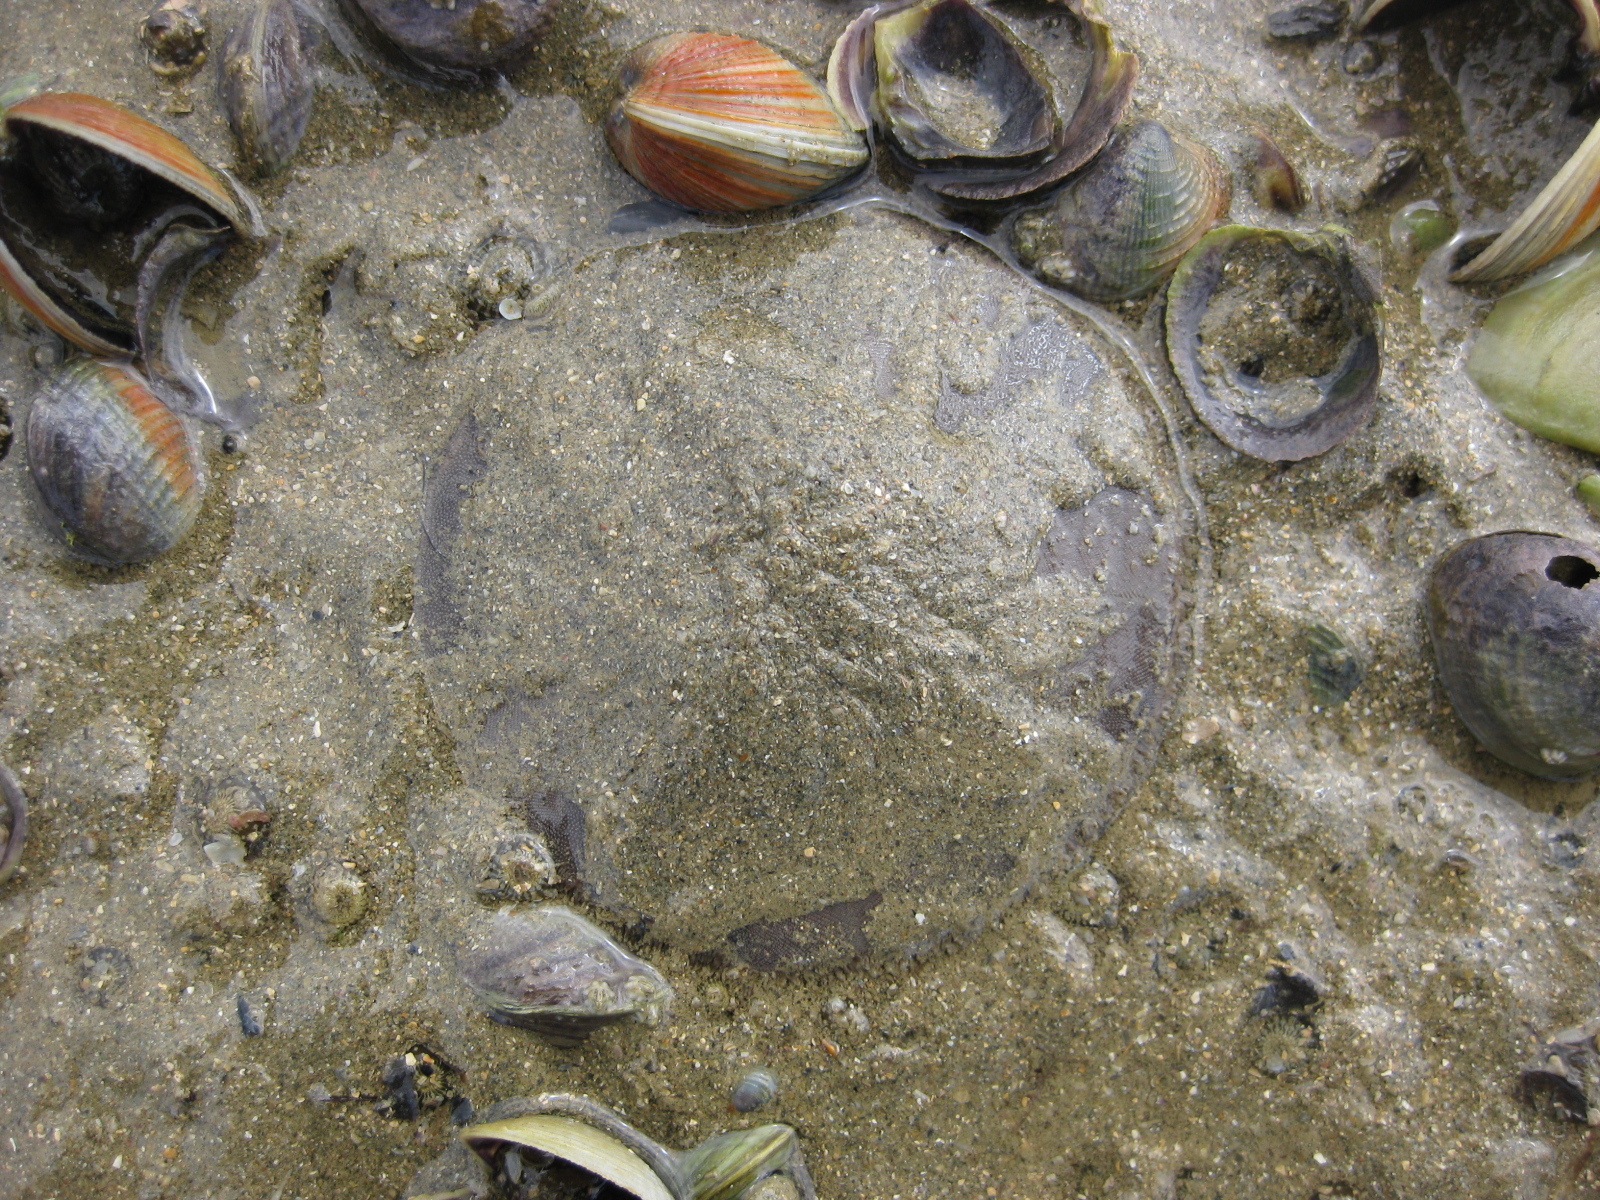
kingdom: Animalia
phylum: Echinodermata
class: Echinoidea
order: Clypeasteroida
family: Clypeasteridae
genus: Fellaster
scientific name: Fellaster zelandiae
